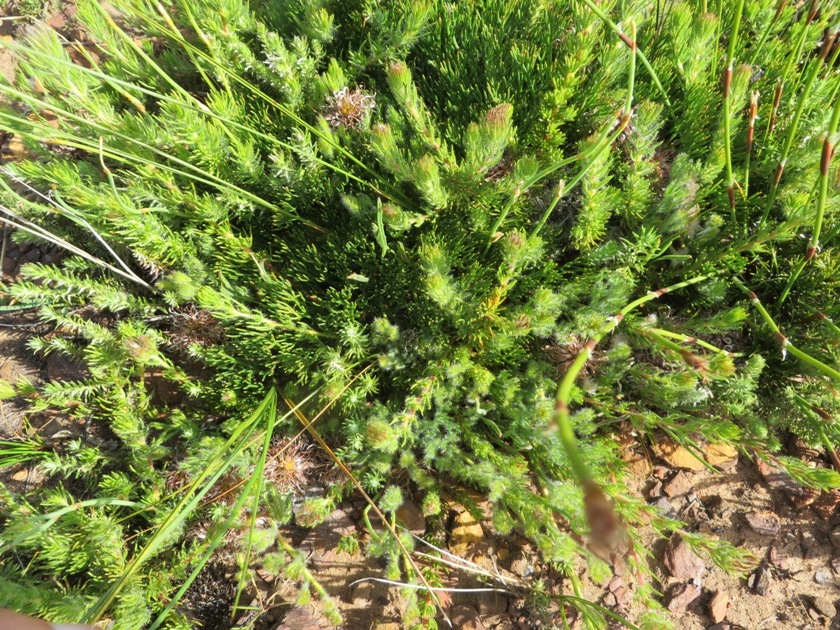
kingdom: Plantae
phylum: Tracheophyta
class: Magnoliopsida
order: Proteales
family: Proteaceae
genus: Serruria
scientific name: Serruria effusa
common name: Candelabra spiderhead
